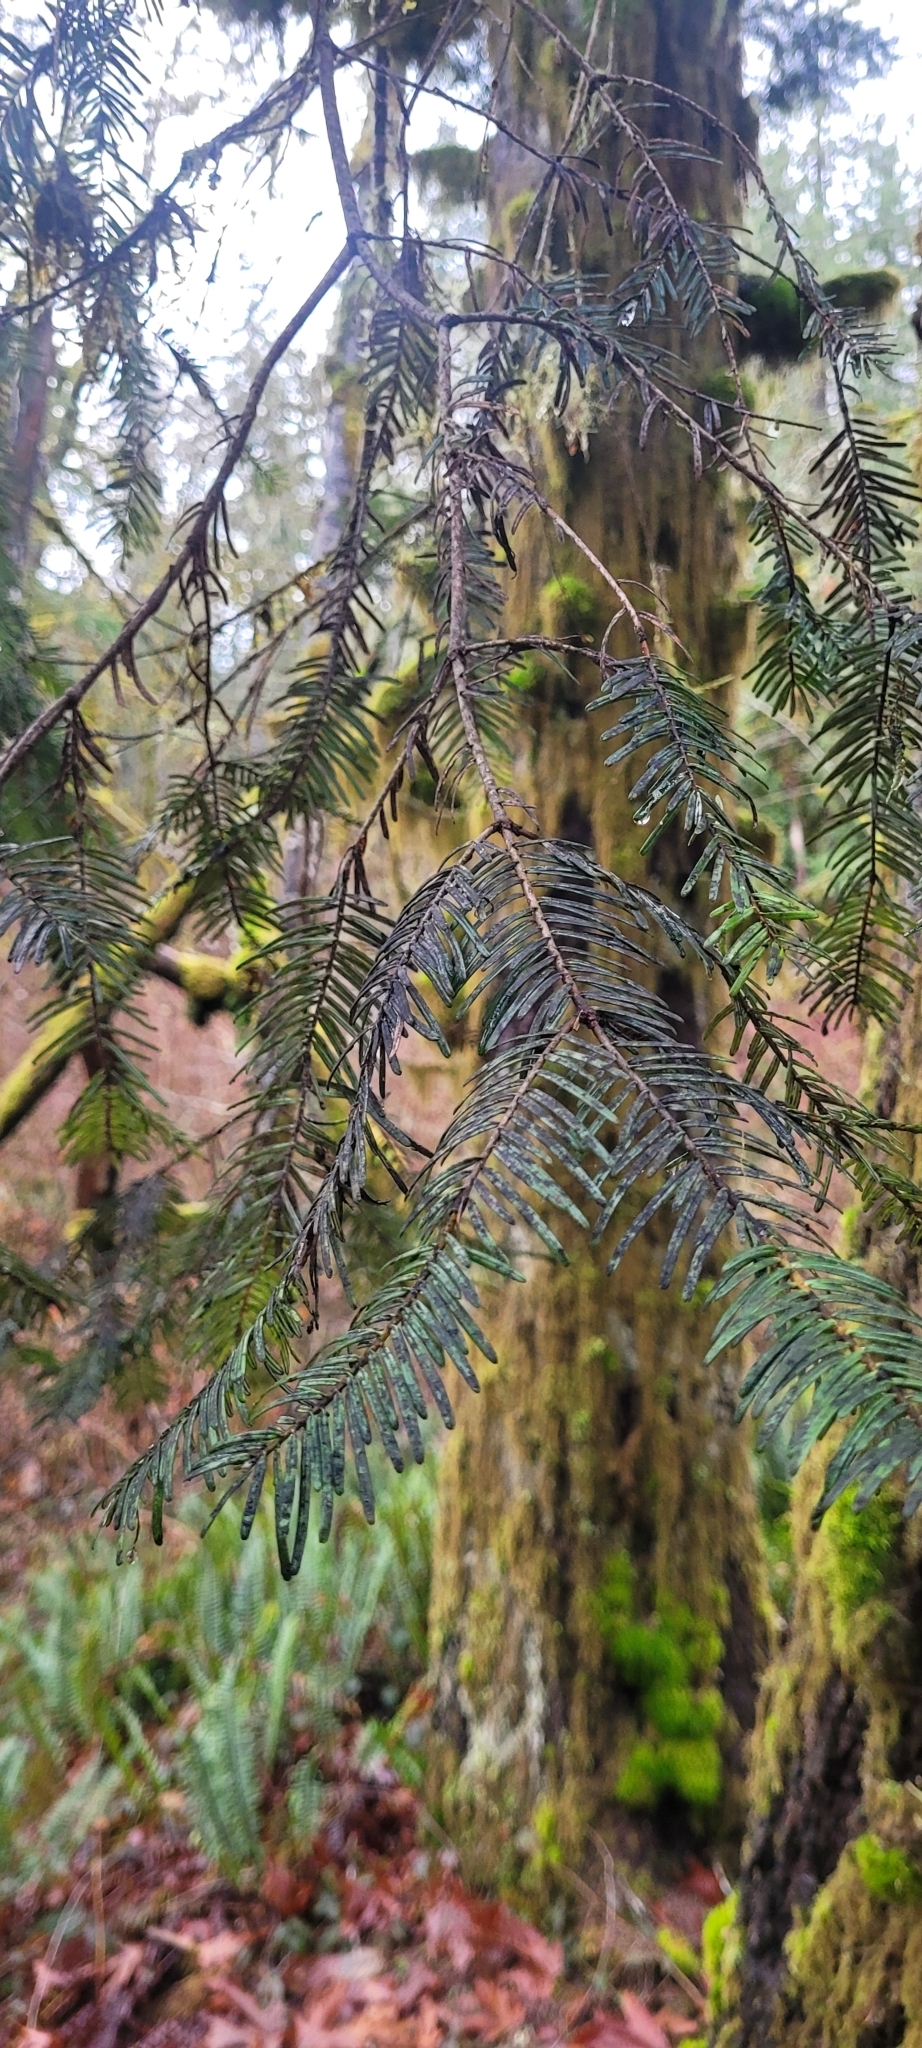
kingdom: Plantae
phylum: Tracheophyta
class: Pinopsida
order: Pinales
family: Pinaceae
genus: Abies
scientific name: Abies grandis
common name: Giant fir
